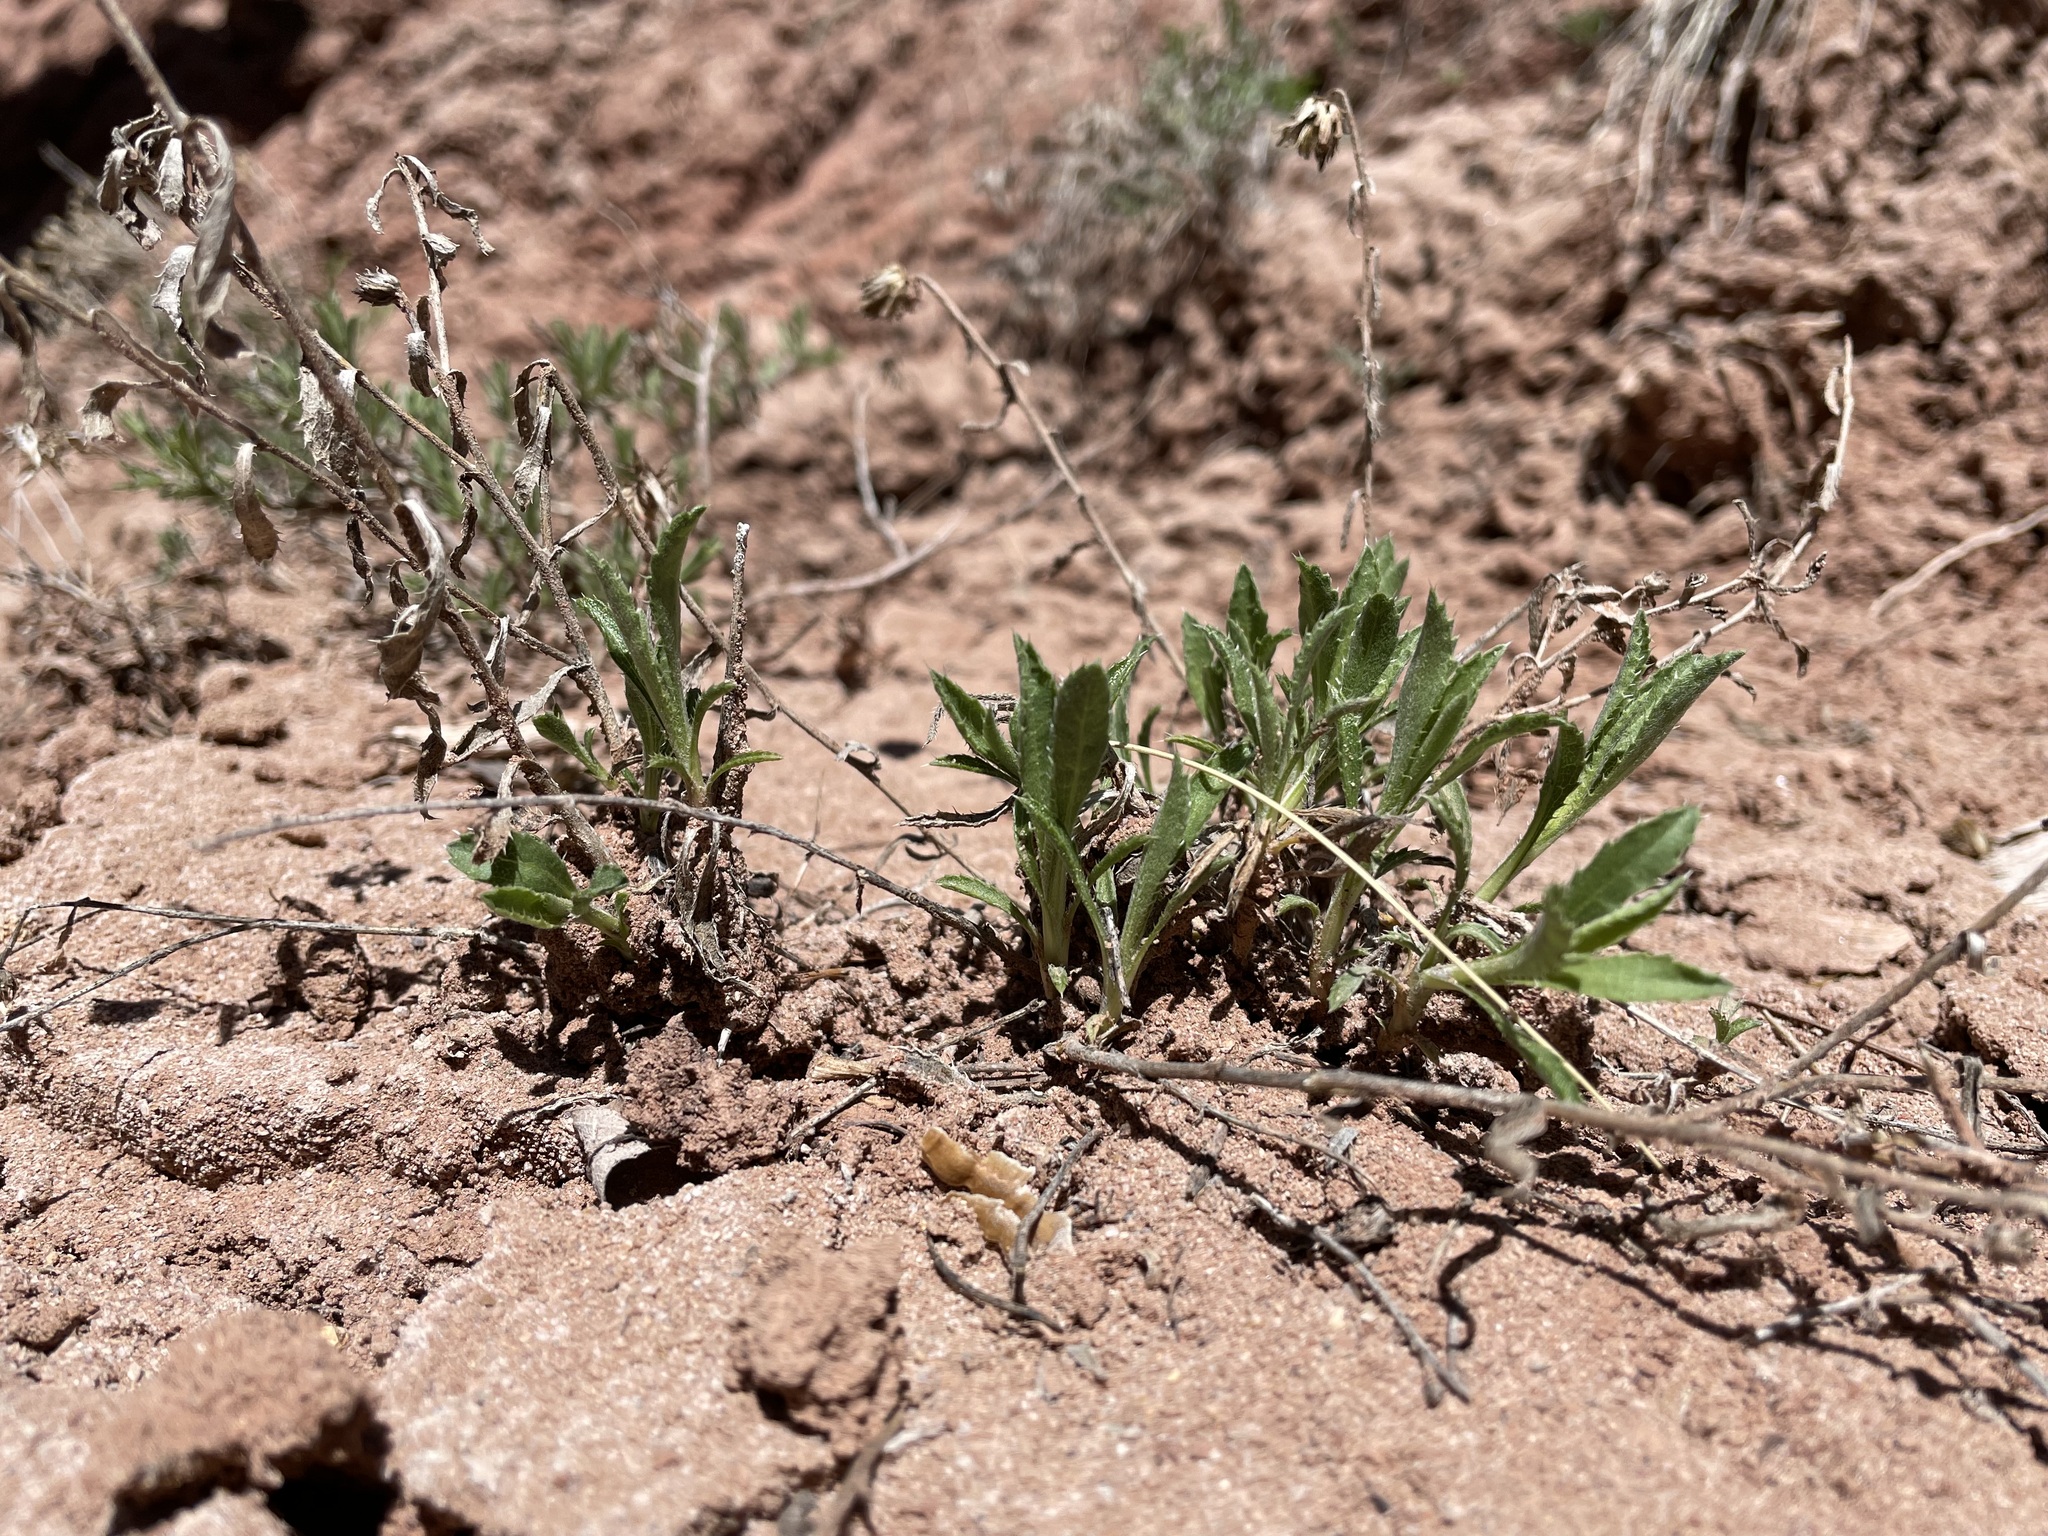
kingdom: Plantae
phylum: Tracheophyta
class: Magnoliopsida
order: Asterales
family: Asteraceae
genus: Xanthisma
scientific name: Xanthisma grindelioides
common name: Goldenweed
